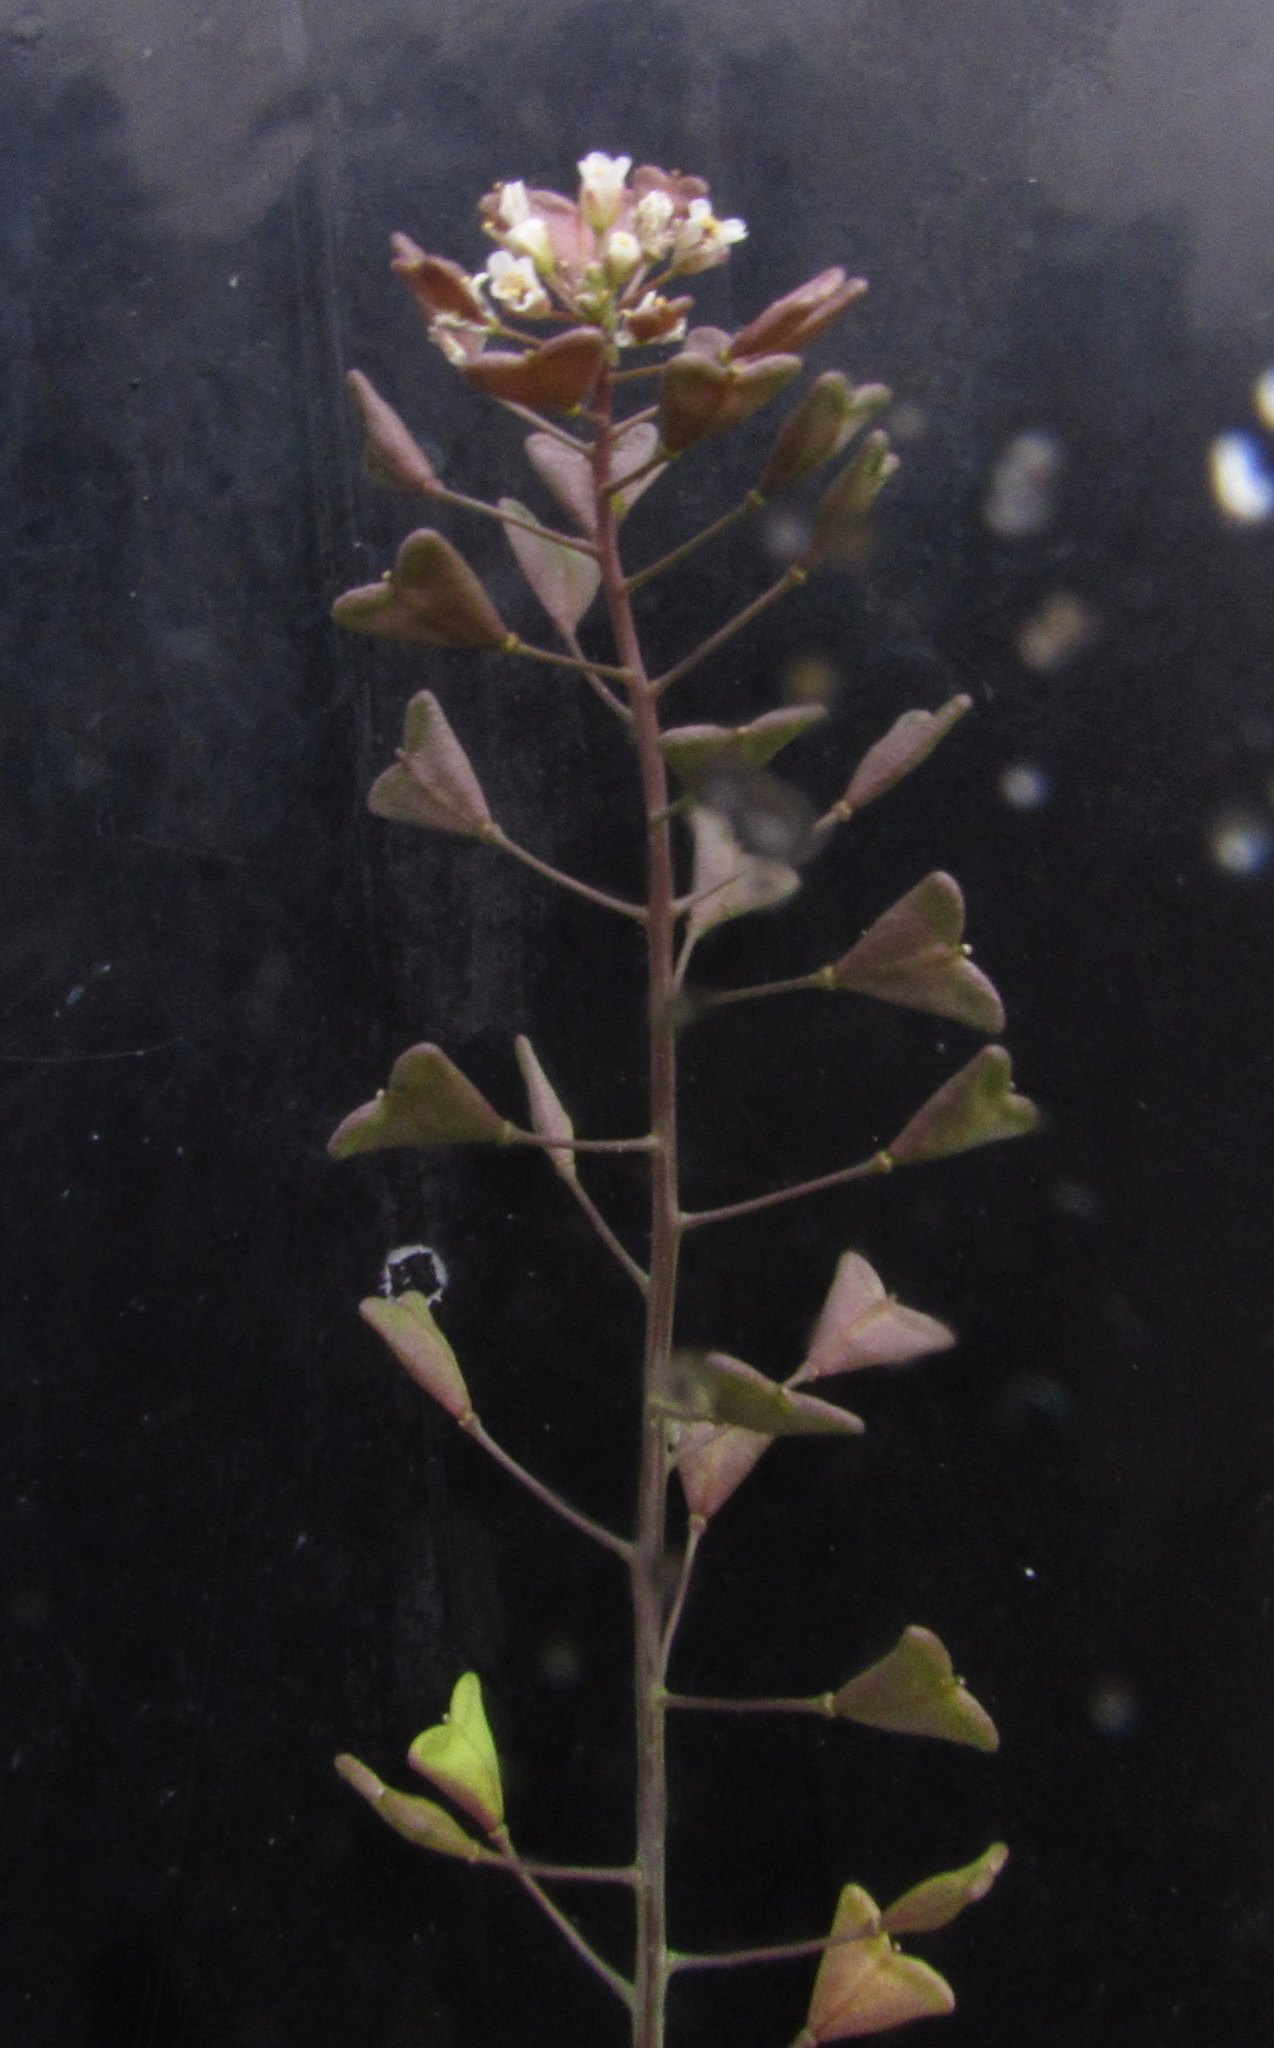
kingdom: Plantae
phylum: Tracheophyta
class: Magnoliopsida
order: Brassicales
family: Brassicaceae
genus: Capsella
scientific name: Capsella bursa-pastoris
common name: Shepherd's purse
